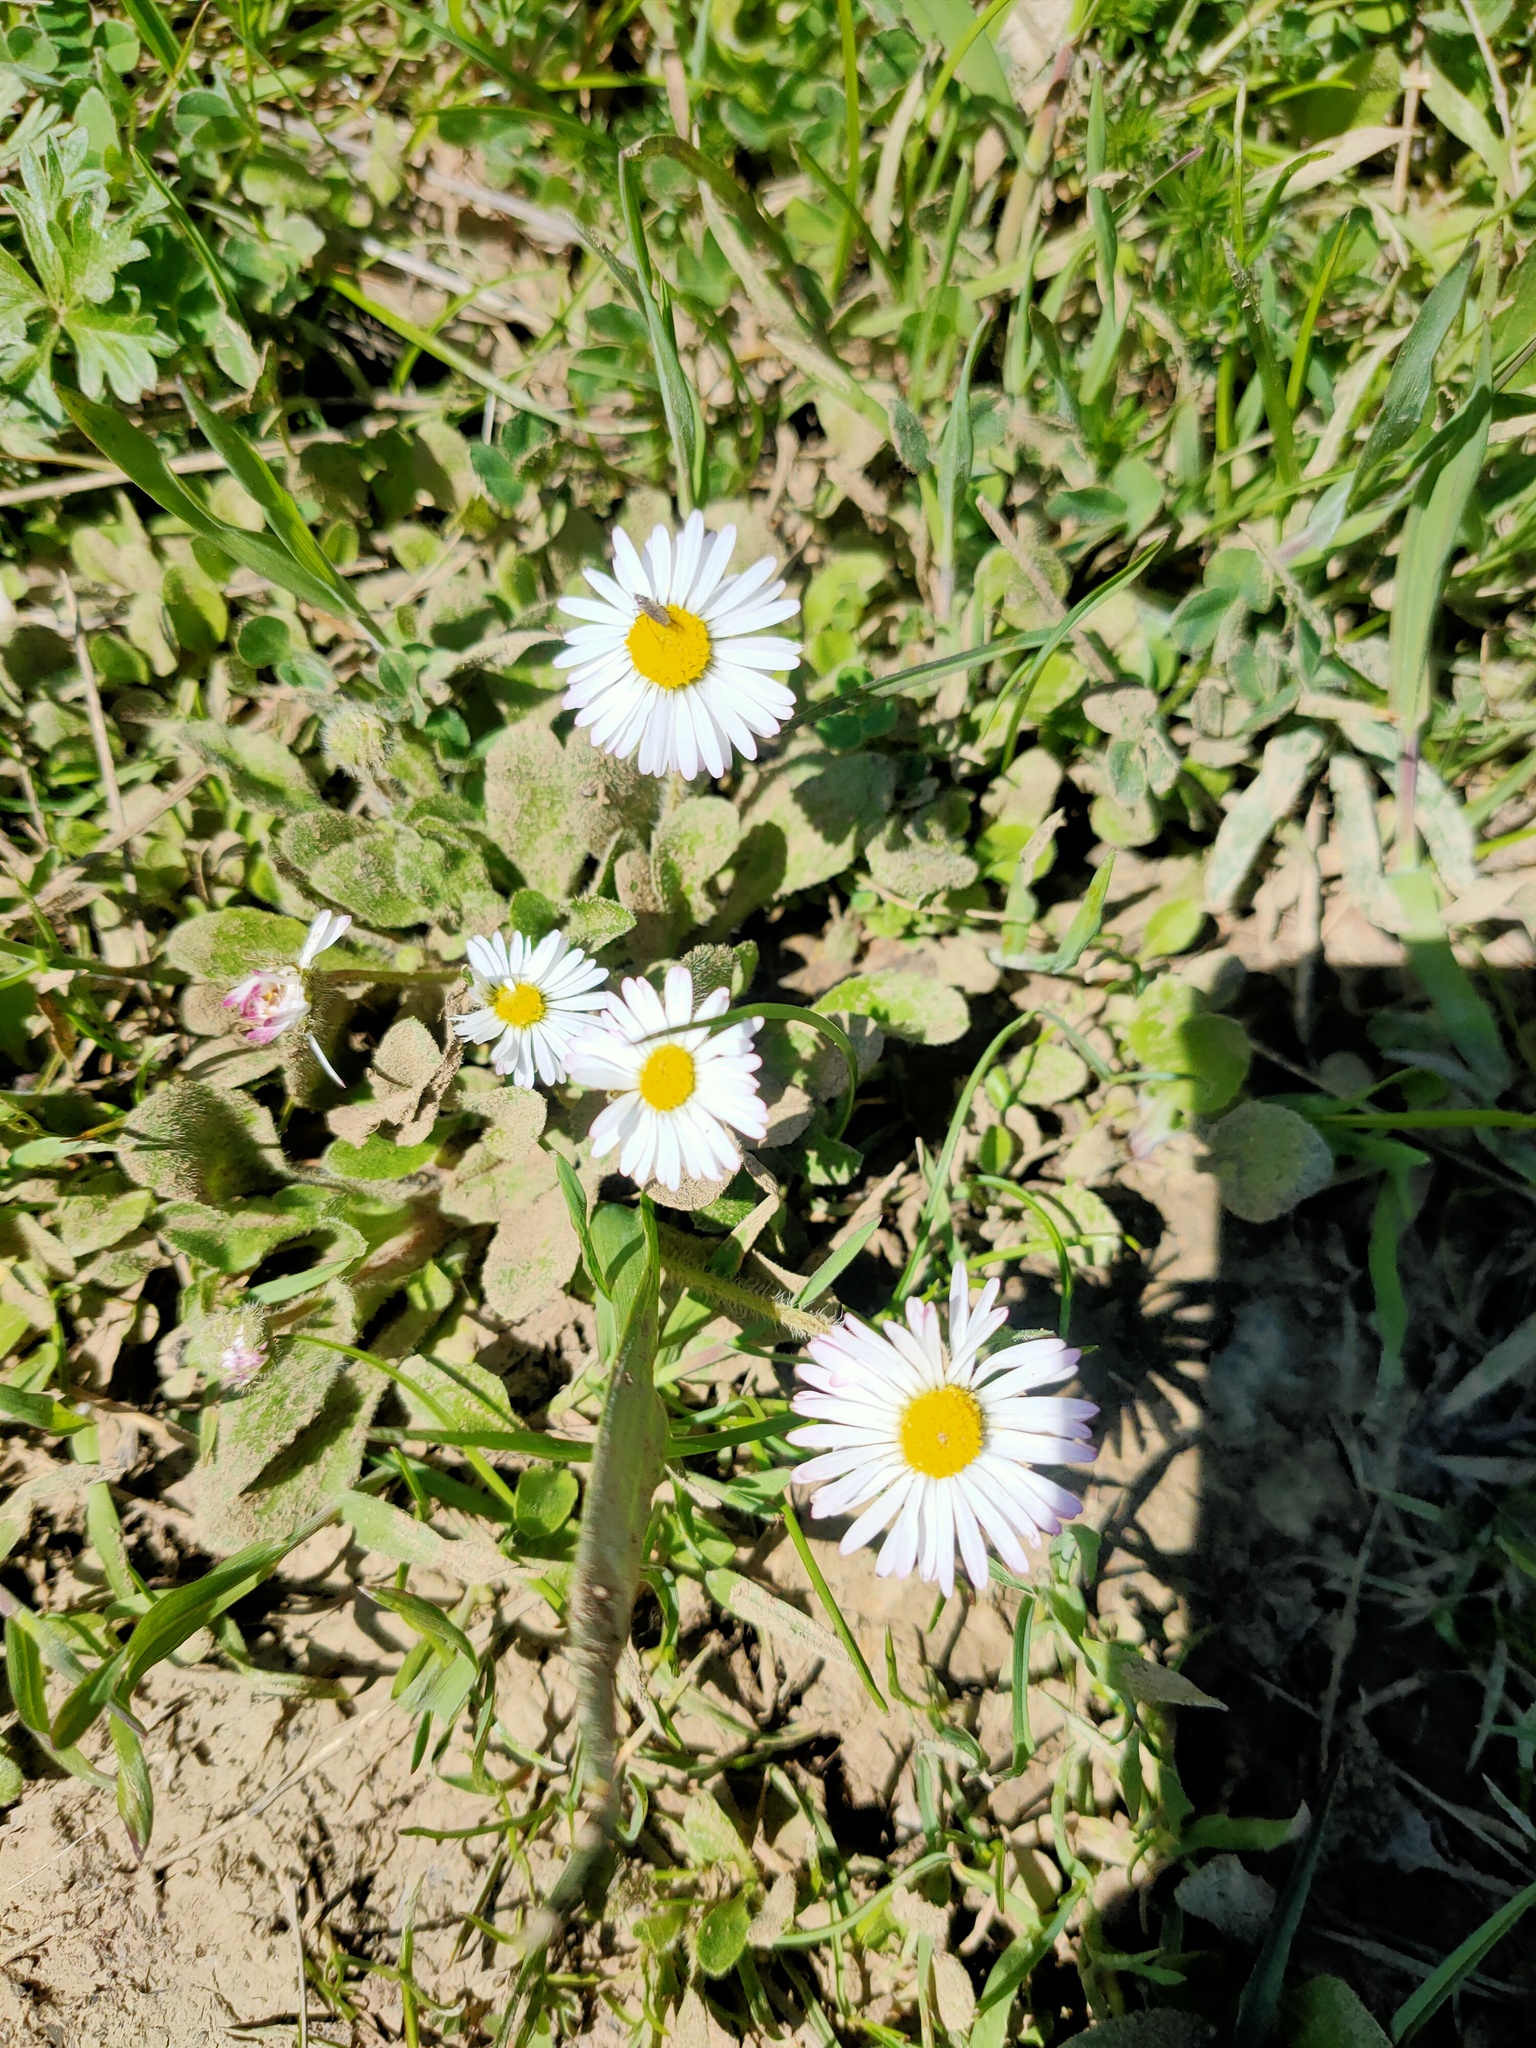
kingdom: Plantae
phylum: Tracheophyta
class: Magnoliopsida
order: Asterales
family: Asteraceae
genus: Bellis
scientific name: Bellis perennis
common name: Lawndaisy
